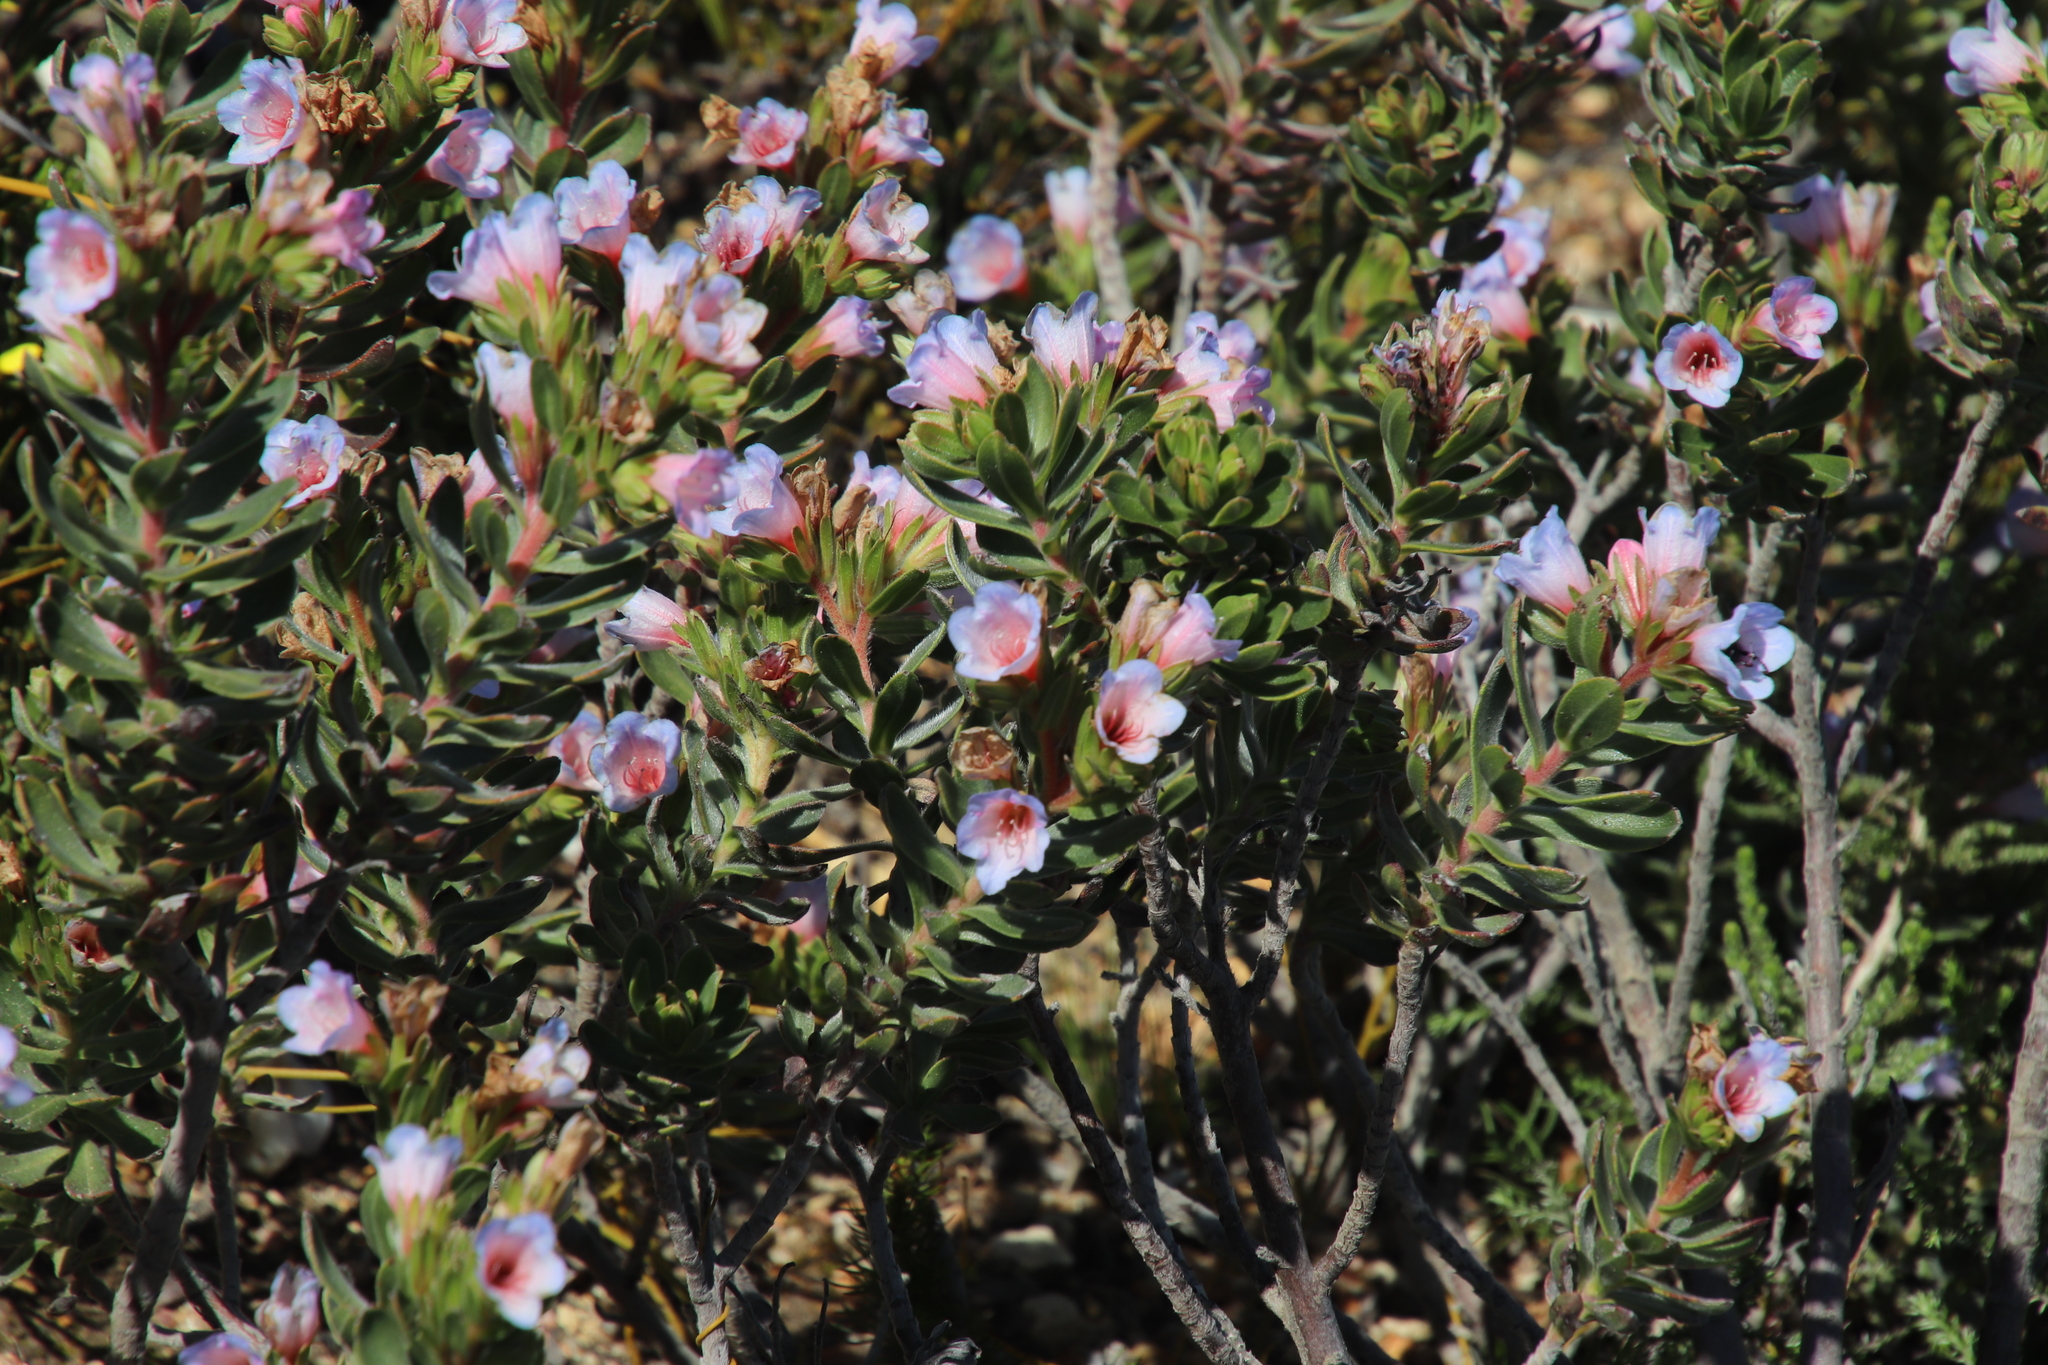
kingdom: Plantae
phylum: Tracheophyta
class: Magnoliopsida
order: Boraginales
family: Boraginaceae
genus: Lobostemon
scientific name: Lobostemon fruticosus
